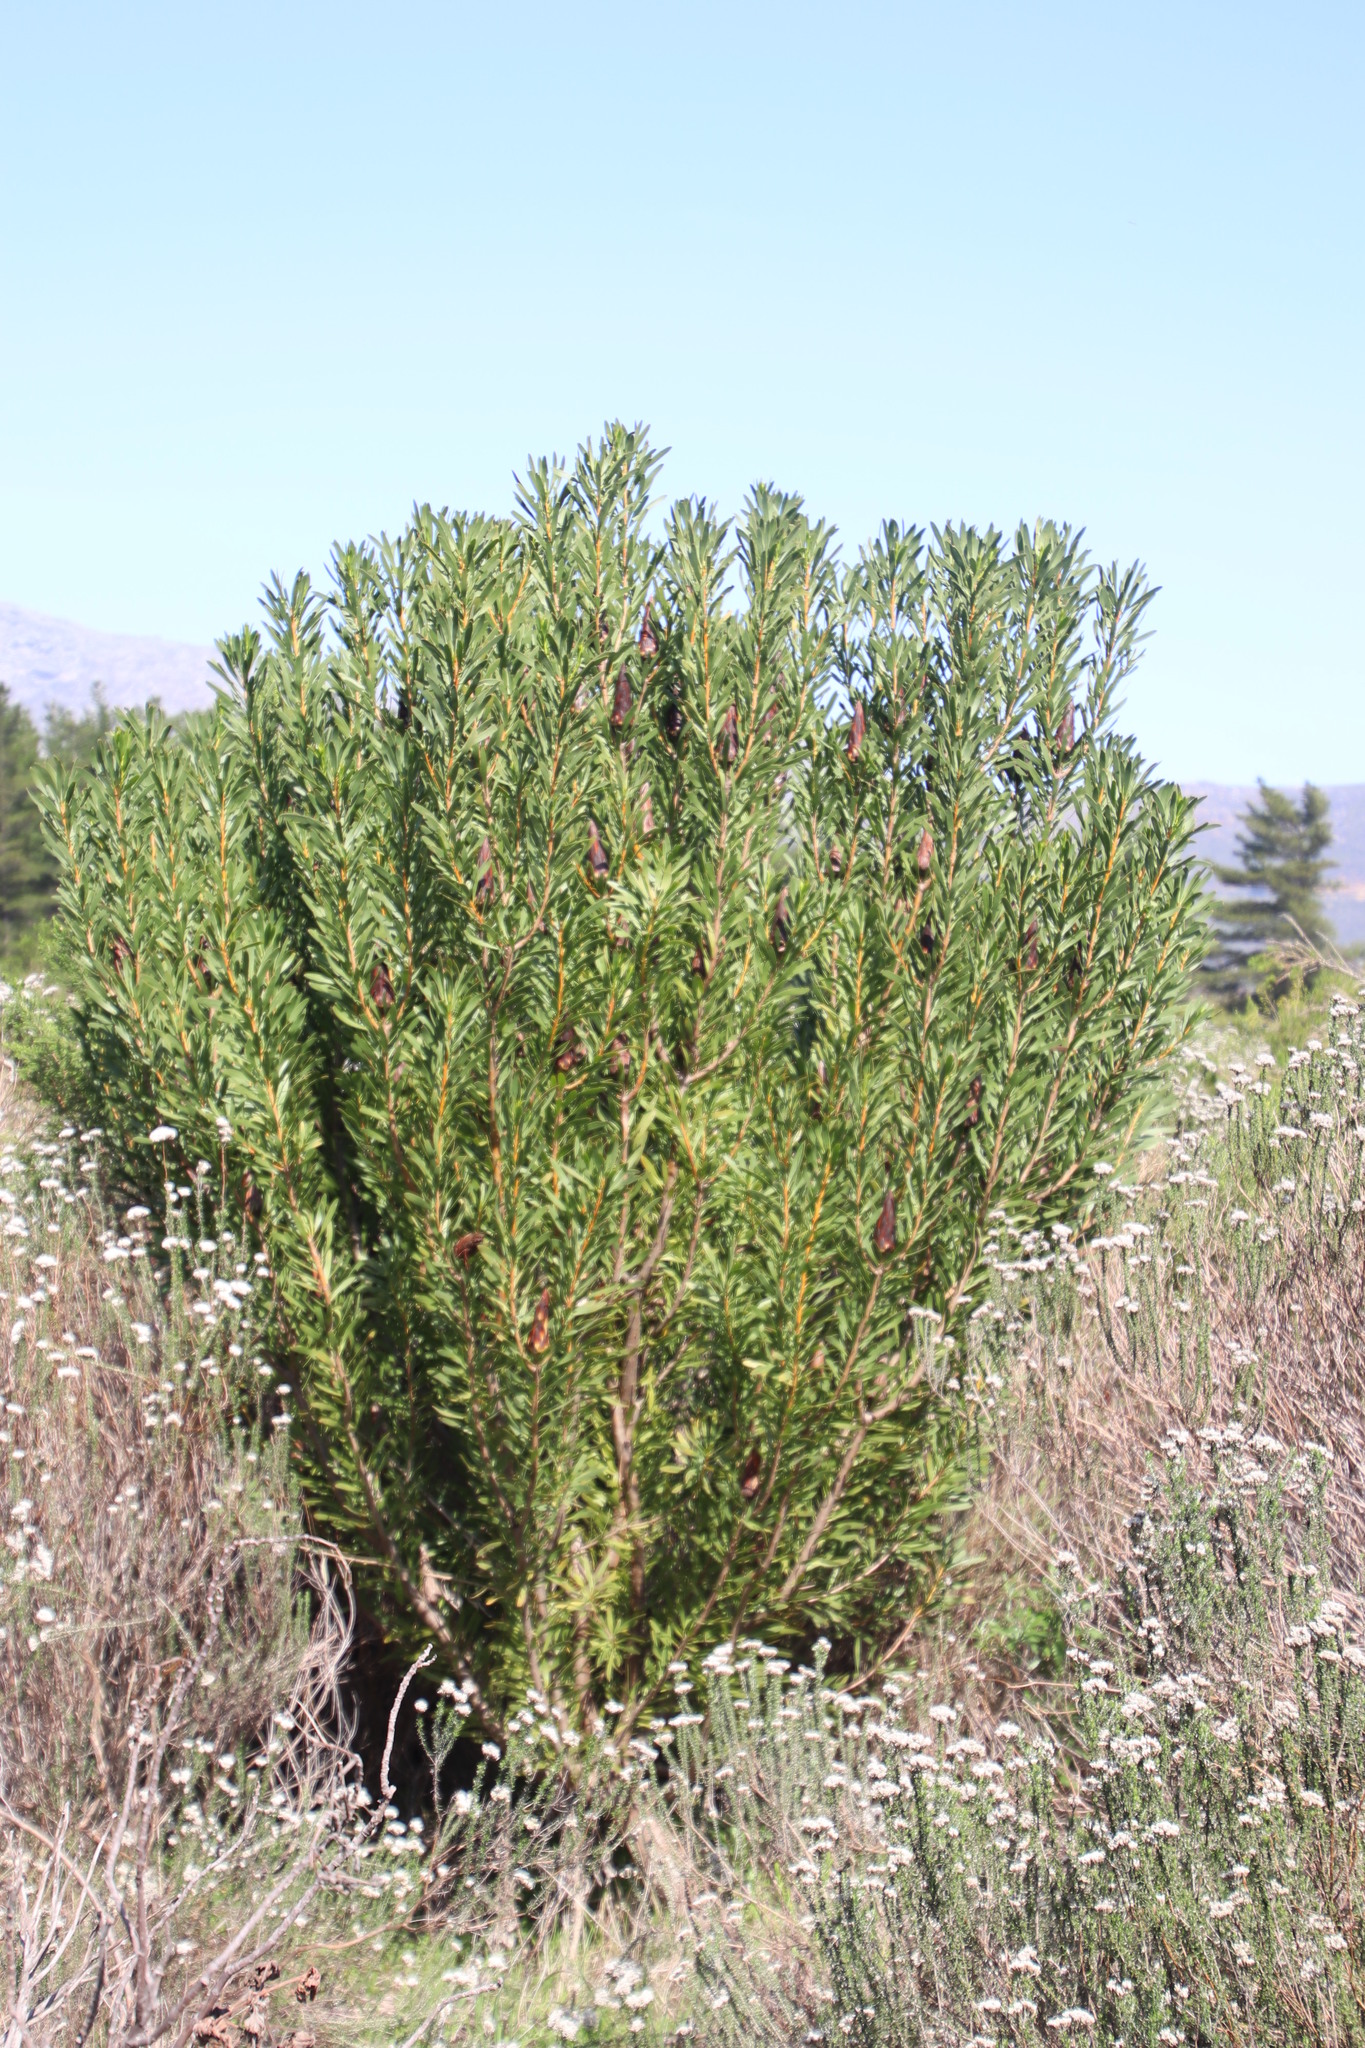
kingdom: Plantae
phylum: Tracheophyta
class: Magnoliopsida
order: Proteales
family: Proteaceae
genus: Protea
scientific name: Protea repens
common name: Sugarbush
